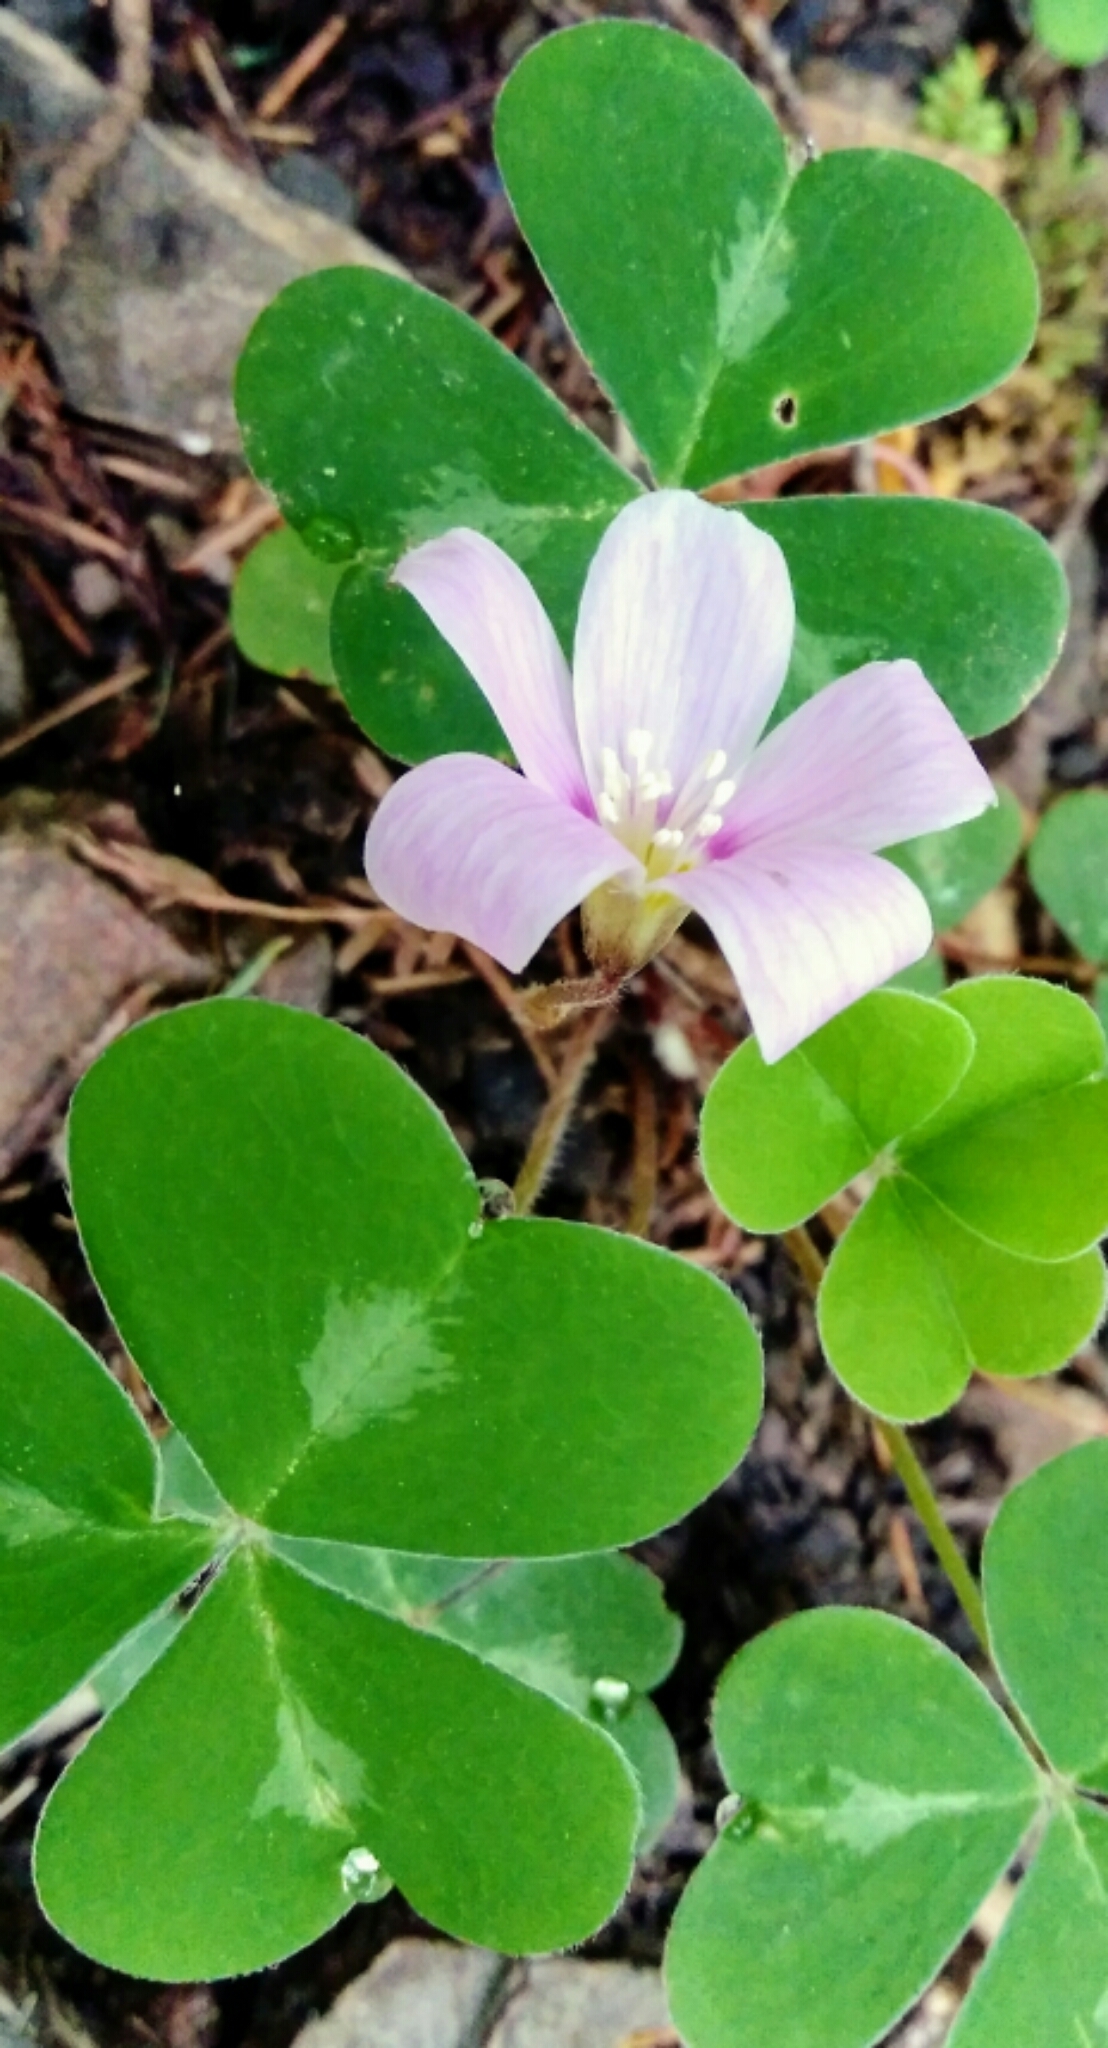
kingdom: Plantae
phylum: Tracheophyta
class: Magnoliopsida
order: Oxalidales
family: Oxalidaceae
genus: Oxalis
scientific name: Oxalis oregana
